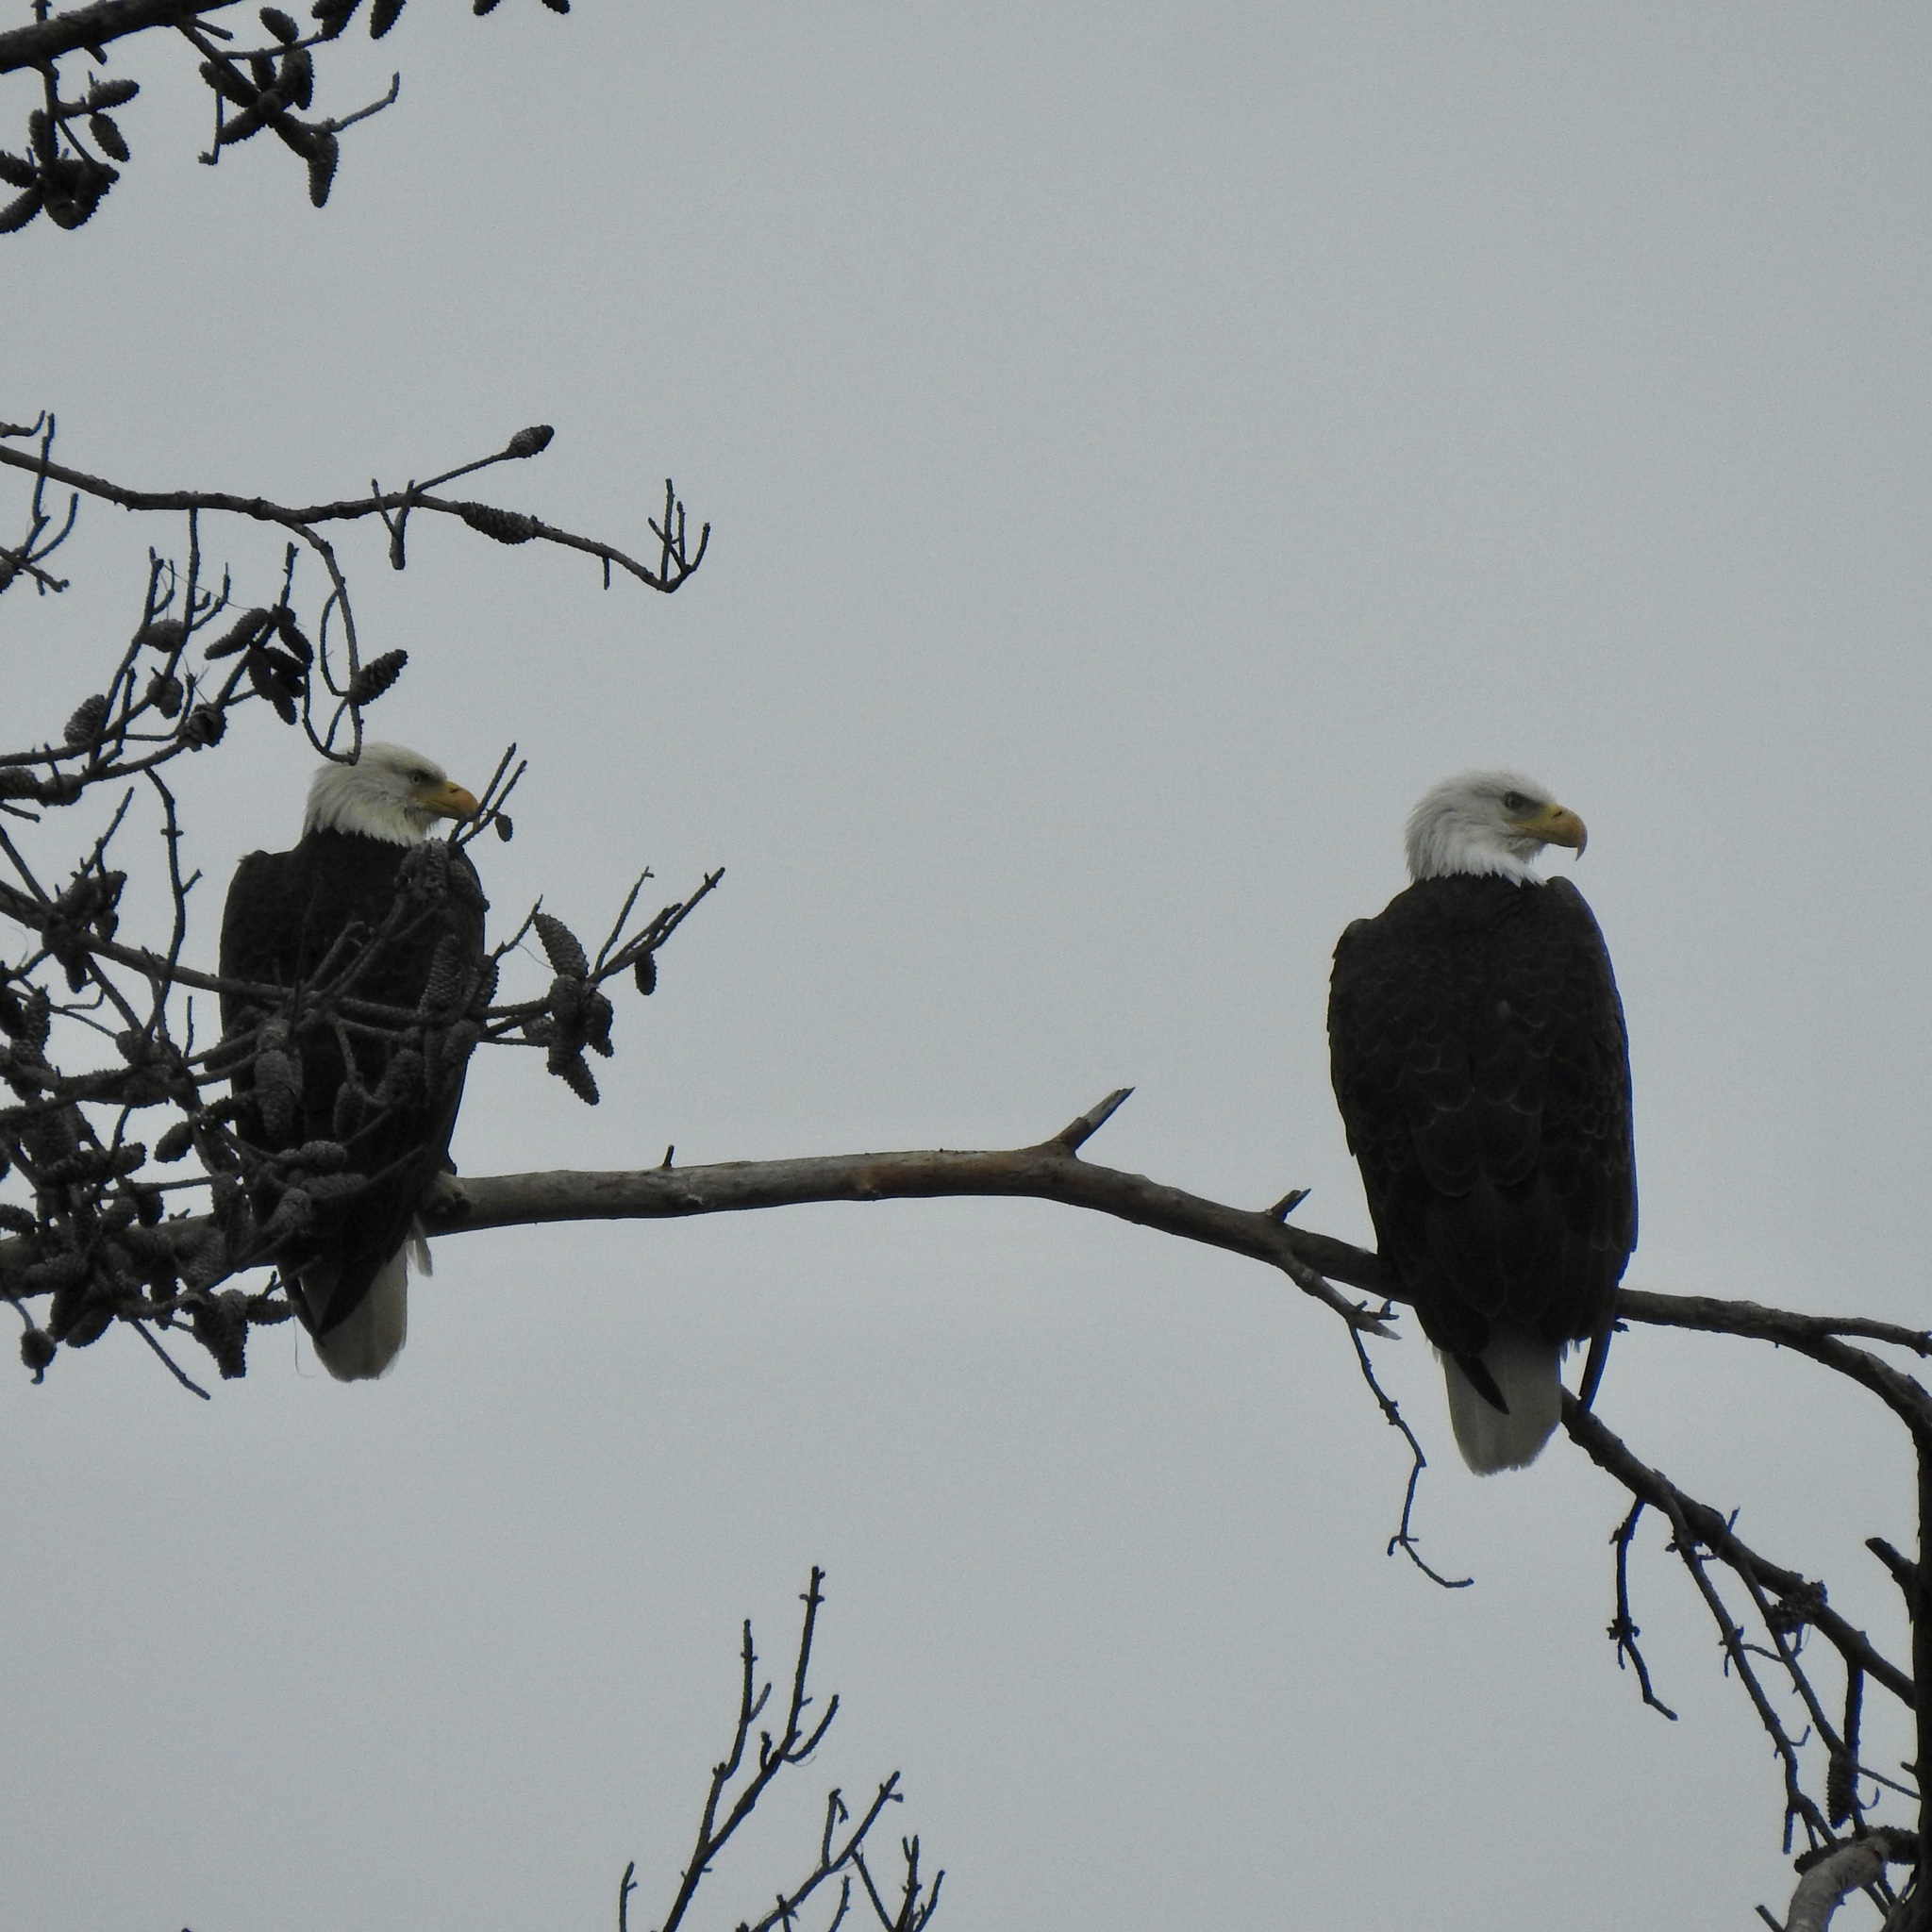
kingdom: Animalia
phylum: Chordata
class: Aves
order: Accipitriformes
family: Accipitridae
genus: Haliaeetus
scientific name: Haliaeetus leucocephalus
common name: Bald eagle
